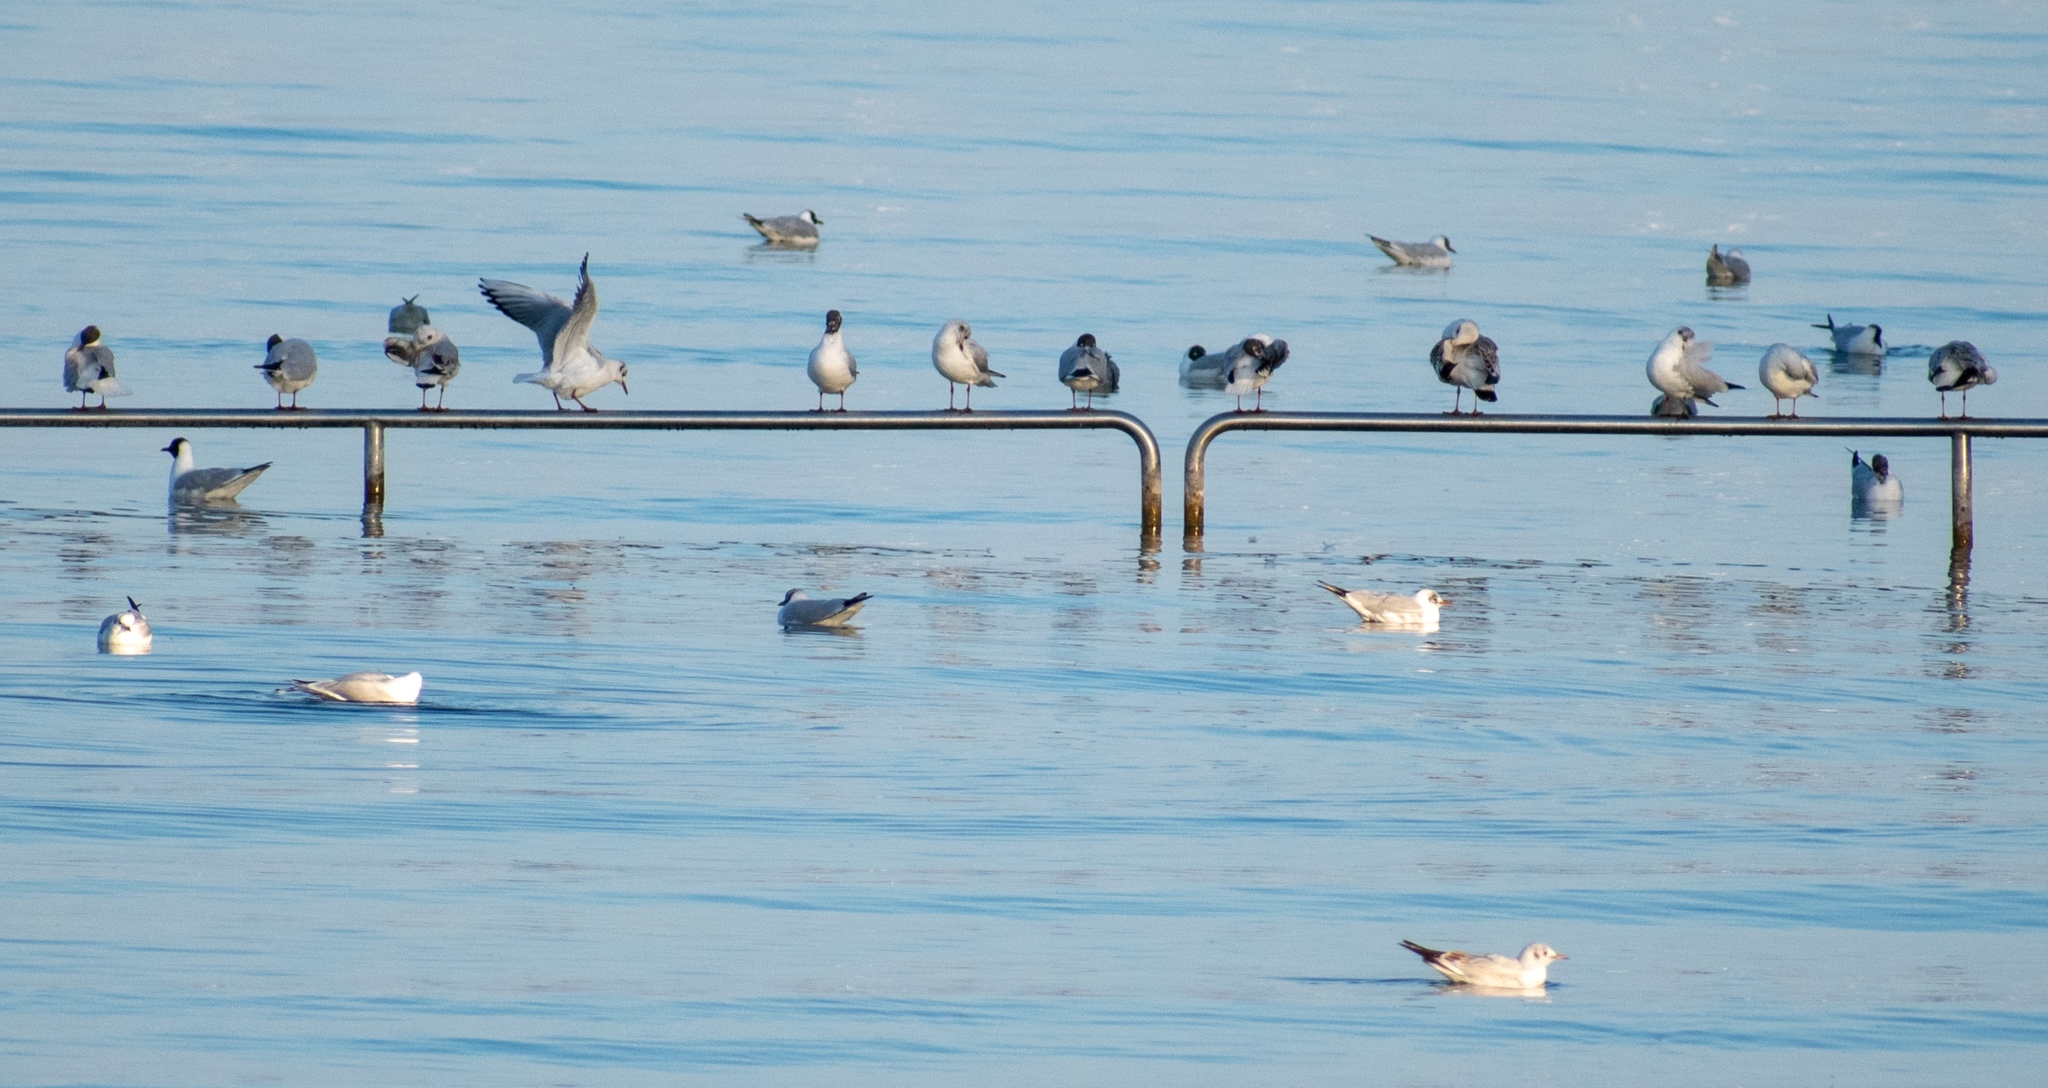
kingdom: Animalia
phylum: Chordata
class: Aves
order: Charadriiformes
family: Laridae
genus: Chroicocephalus
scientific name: Chroicocephalus ridibundus
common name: Black-headed gull
